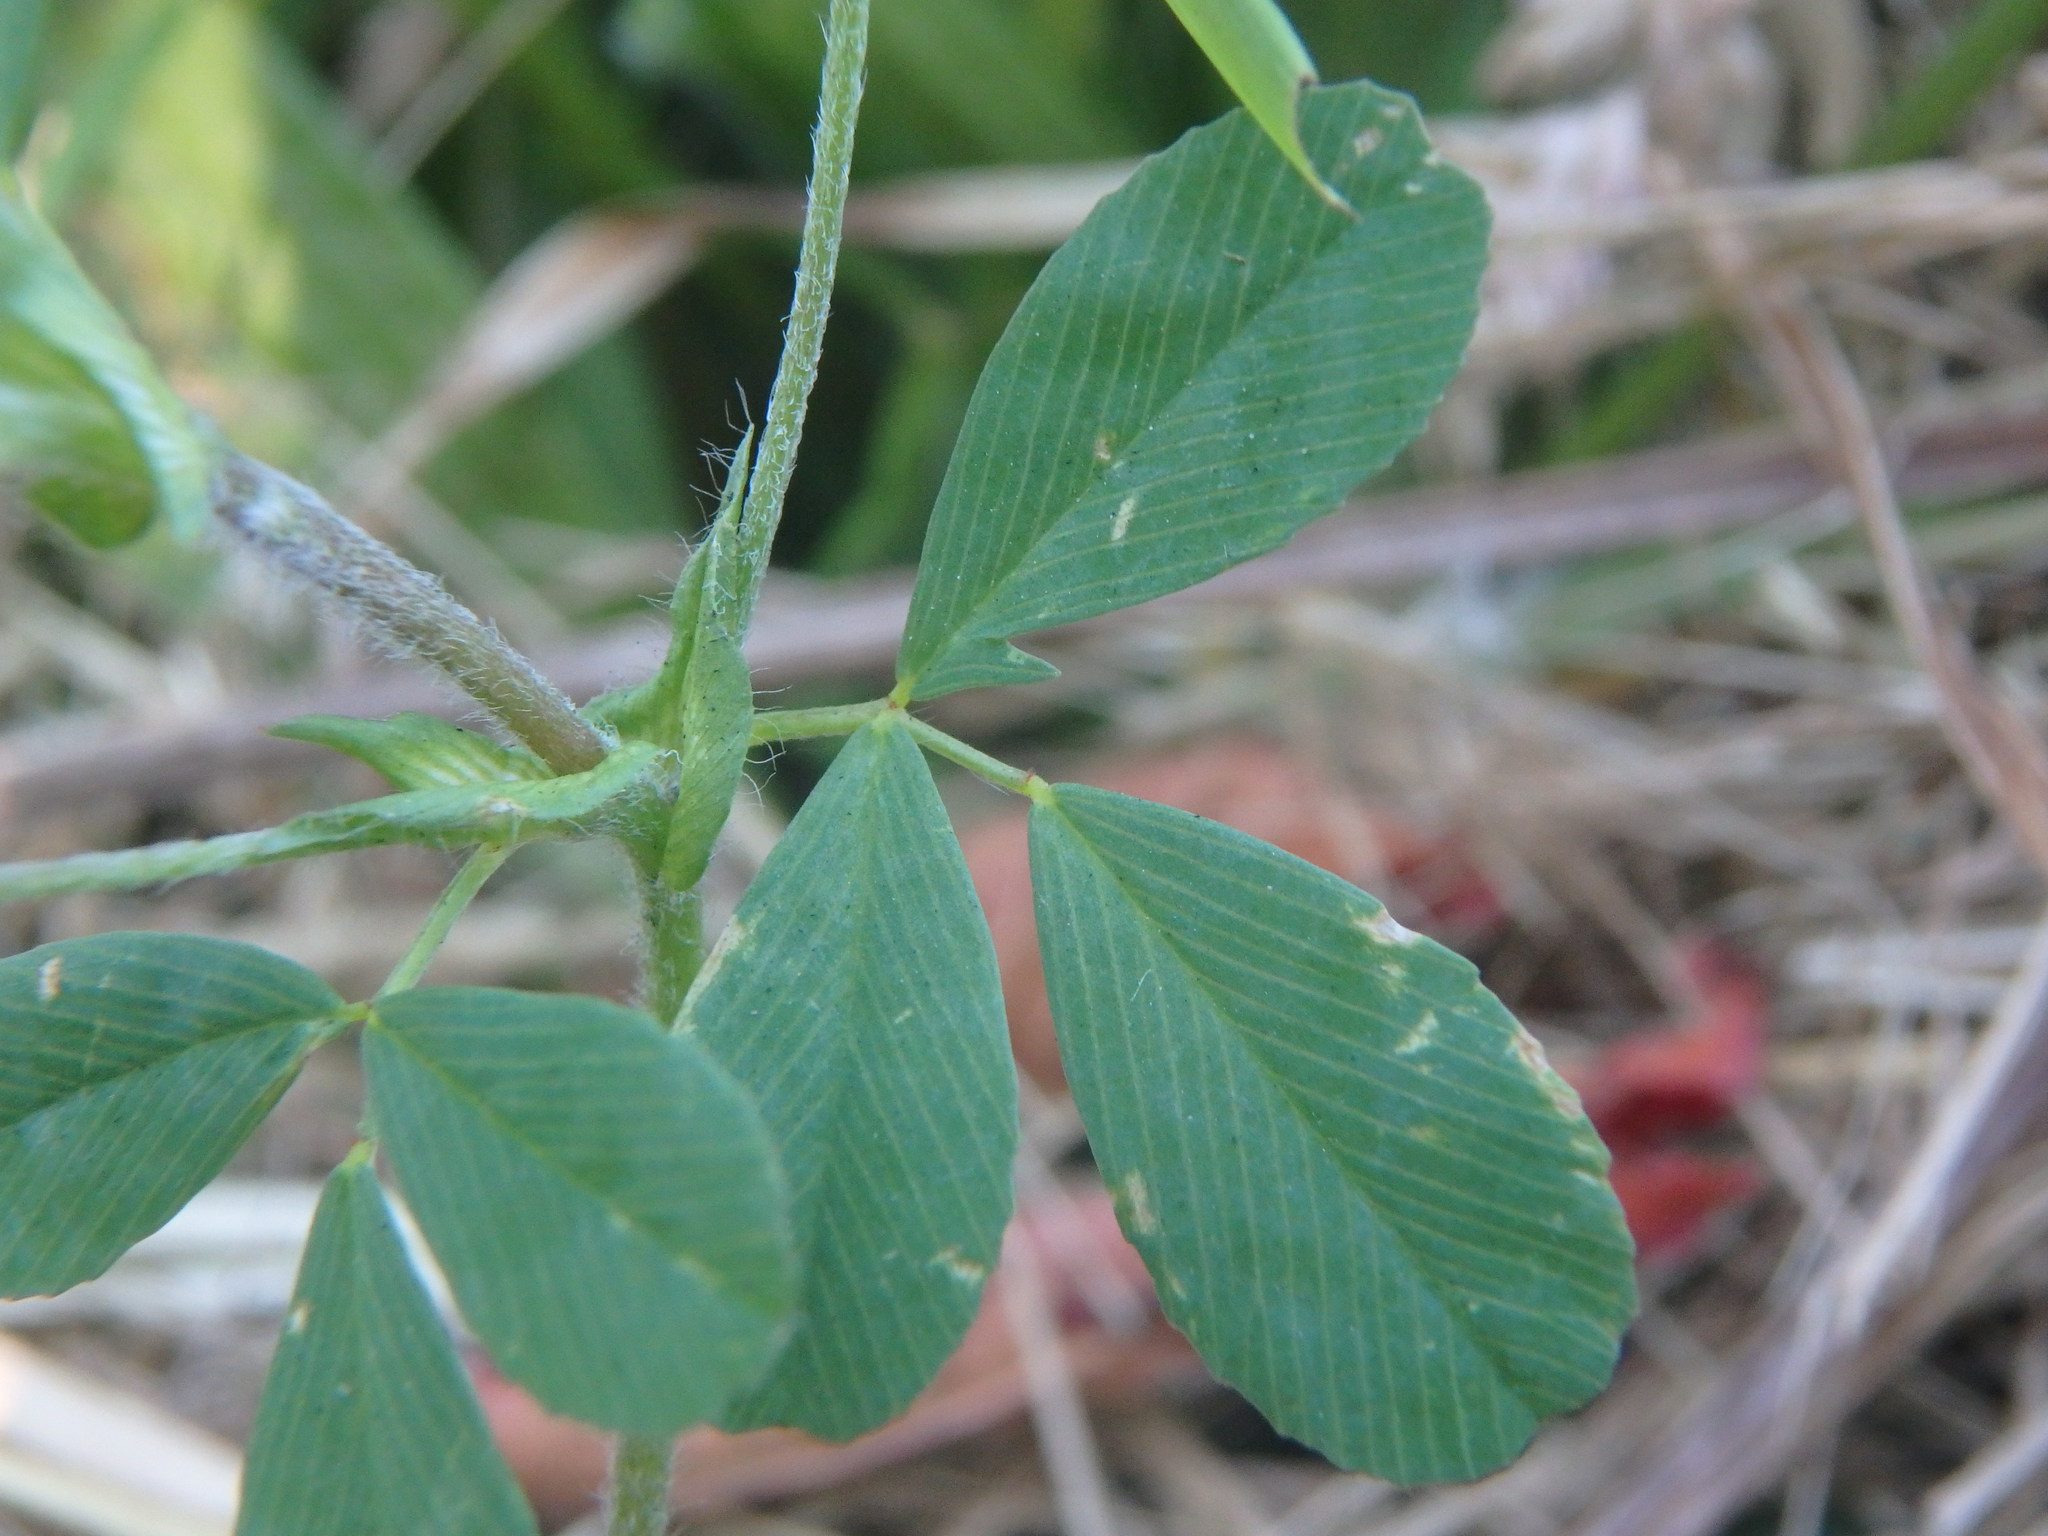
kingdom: Plantae
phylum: Tracheophyta
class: Magnoliopsida
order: Fabales
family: Fabaceae
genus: Trifolium
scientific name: Trifolium campestre
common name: Field clover
